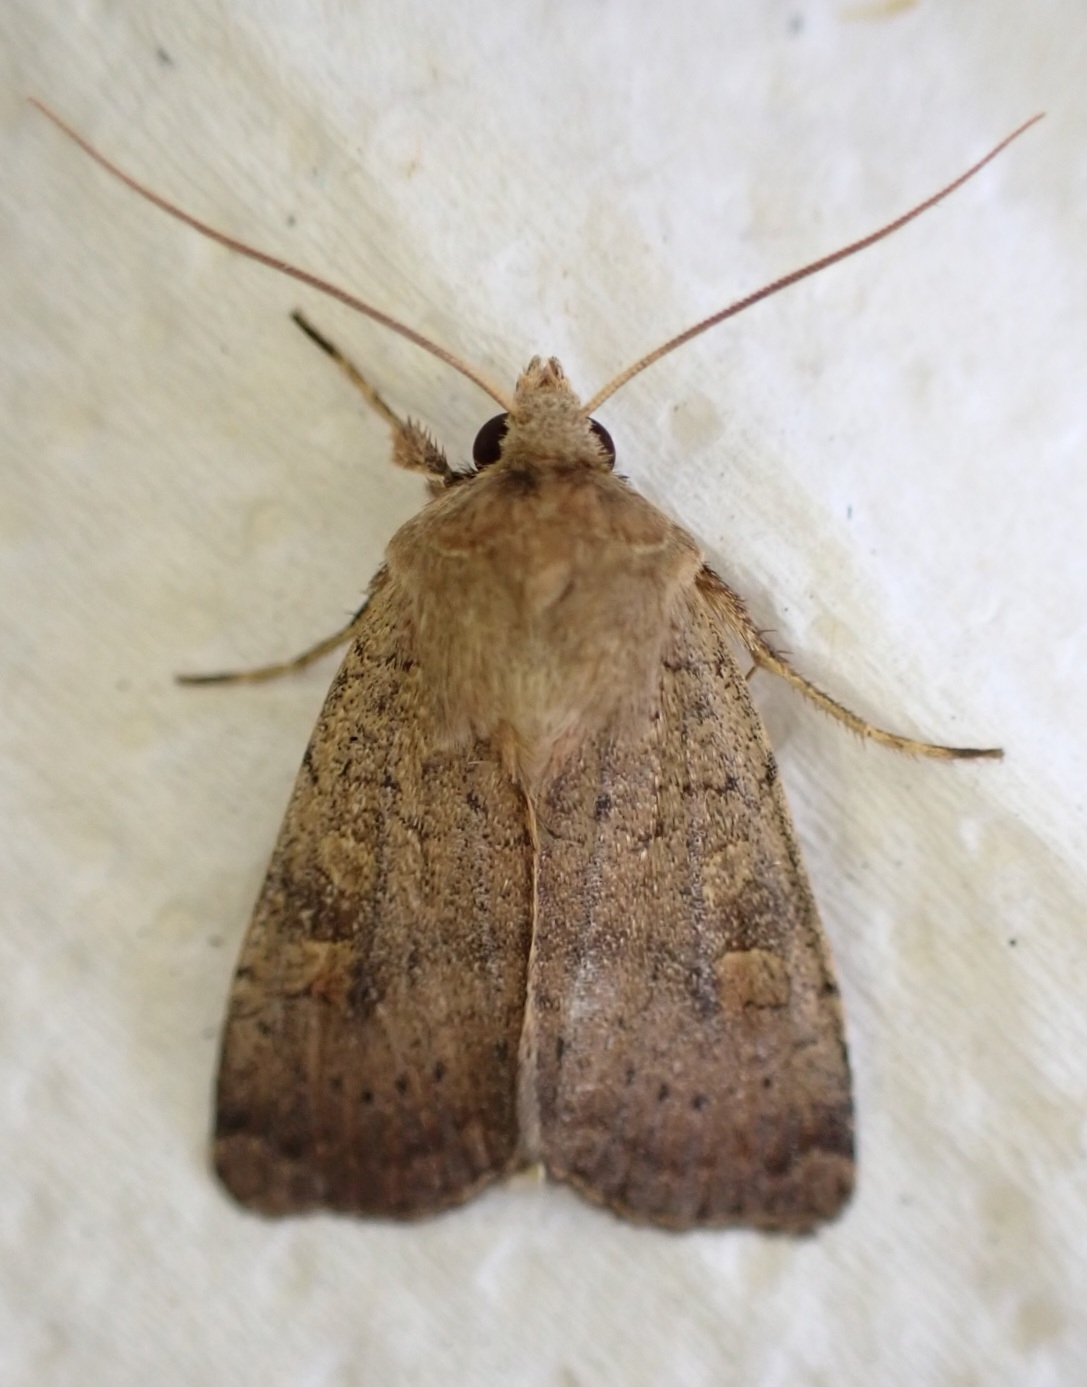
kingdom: Animalia
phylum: Arthropoda
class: Insecta
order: Lepidoptera
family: Noctuidae
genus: Xestia
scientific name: Xestia xanthographa
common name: Square-spot rustic
